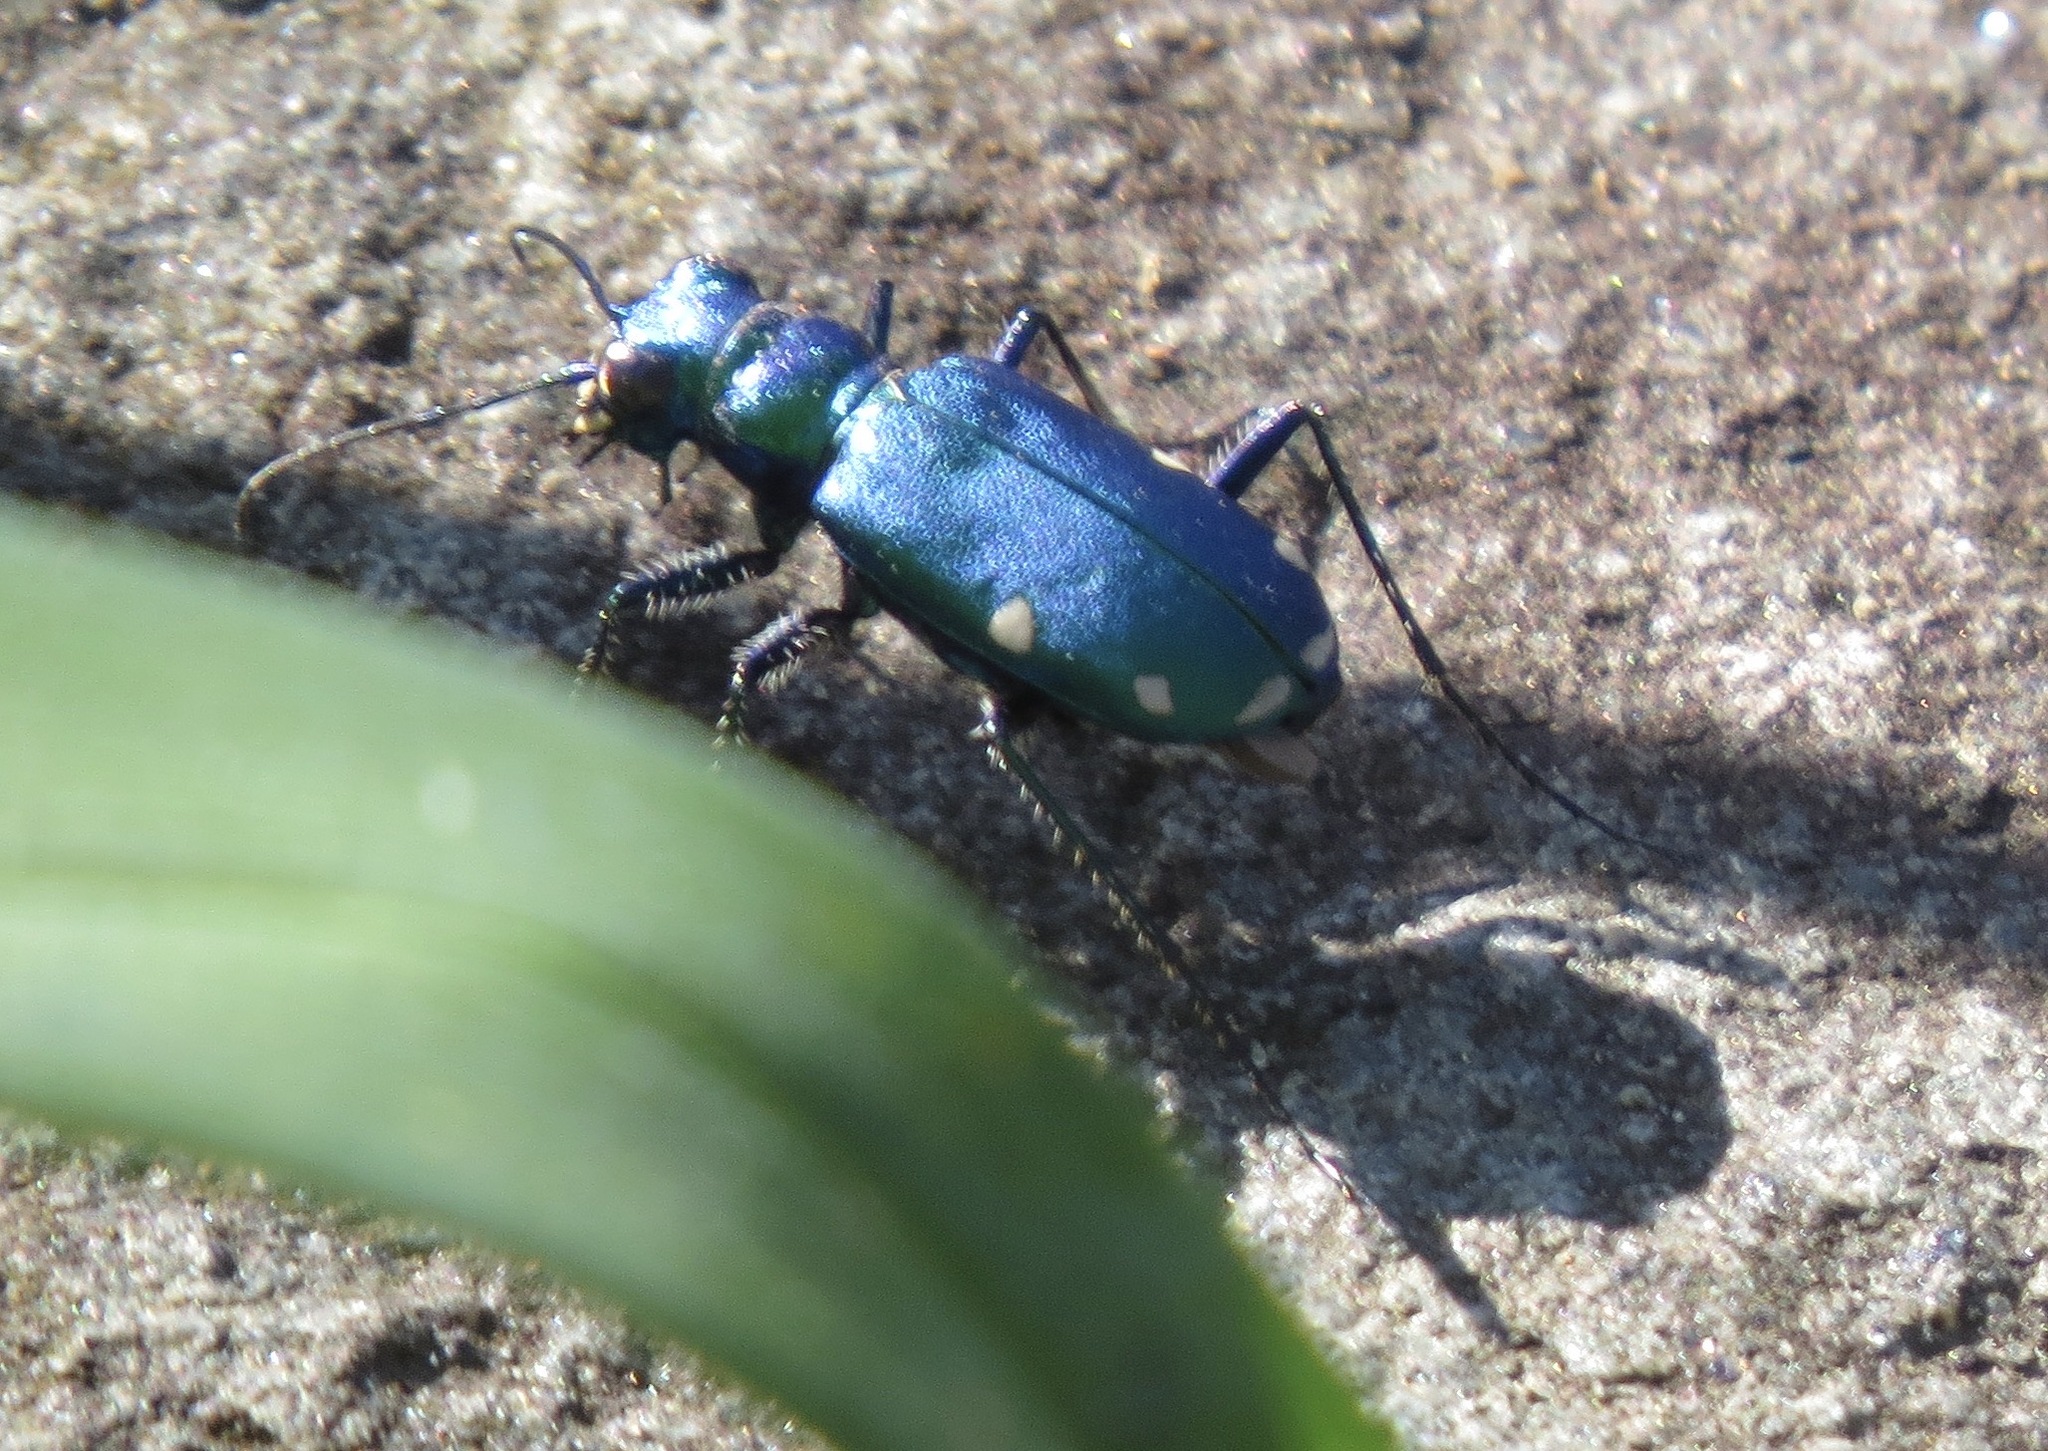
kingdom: Animalia
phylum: Arthropoda
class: Insecta
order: Coleoptera
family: Carabidae
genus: Cicindela
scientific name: Cicindela sexguttata
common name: Six-spotted tiger beetle
